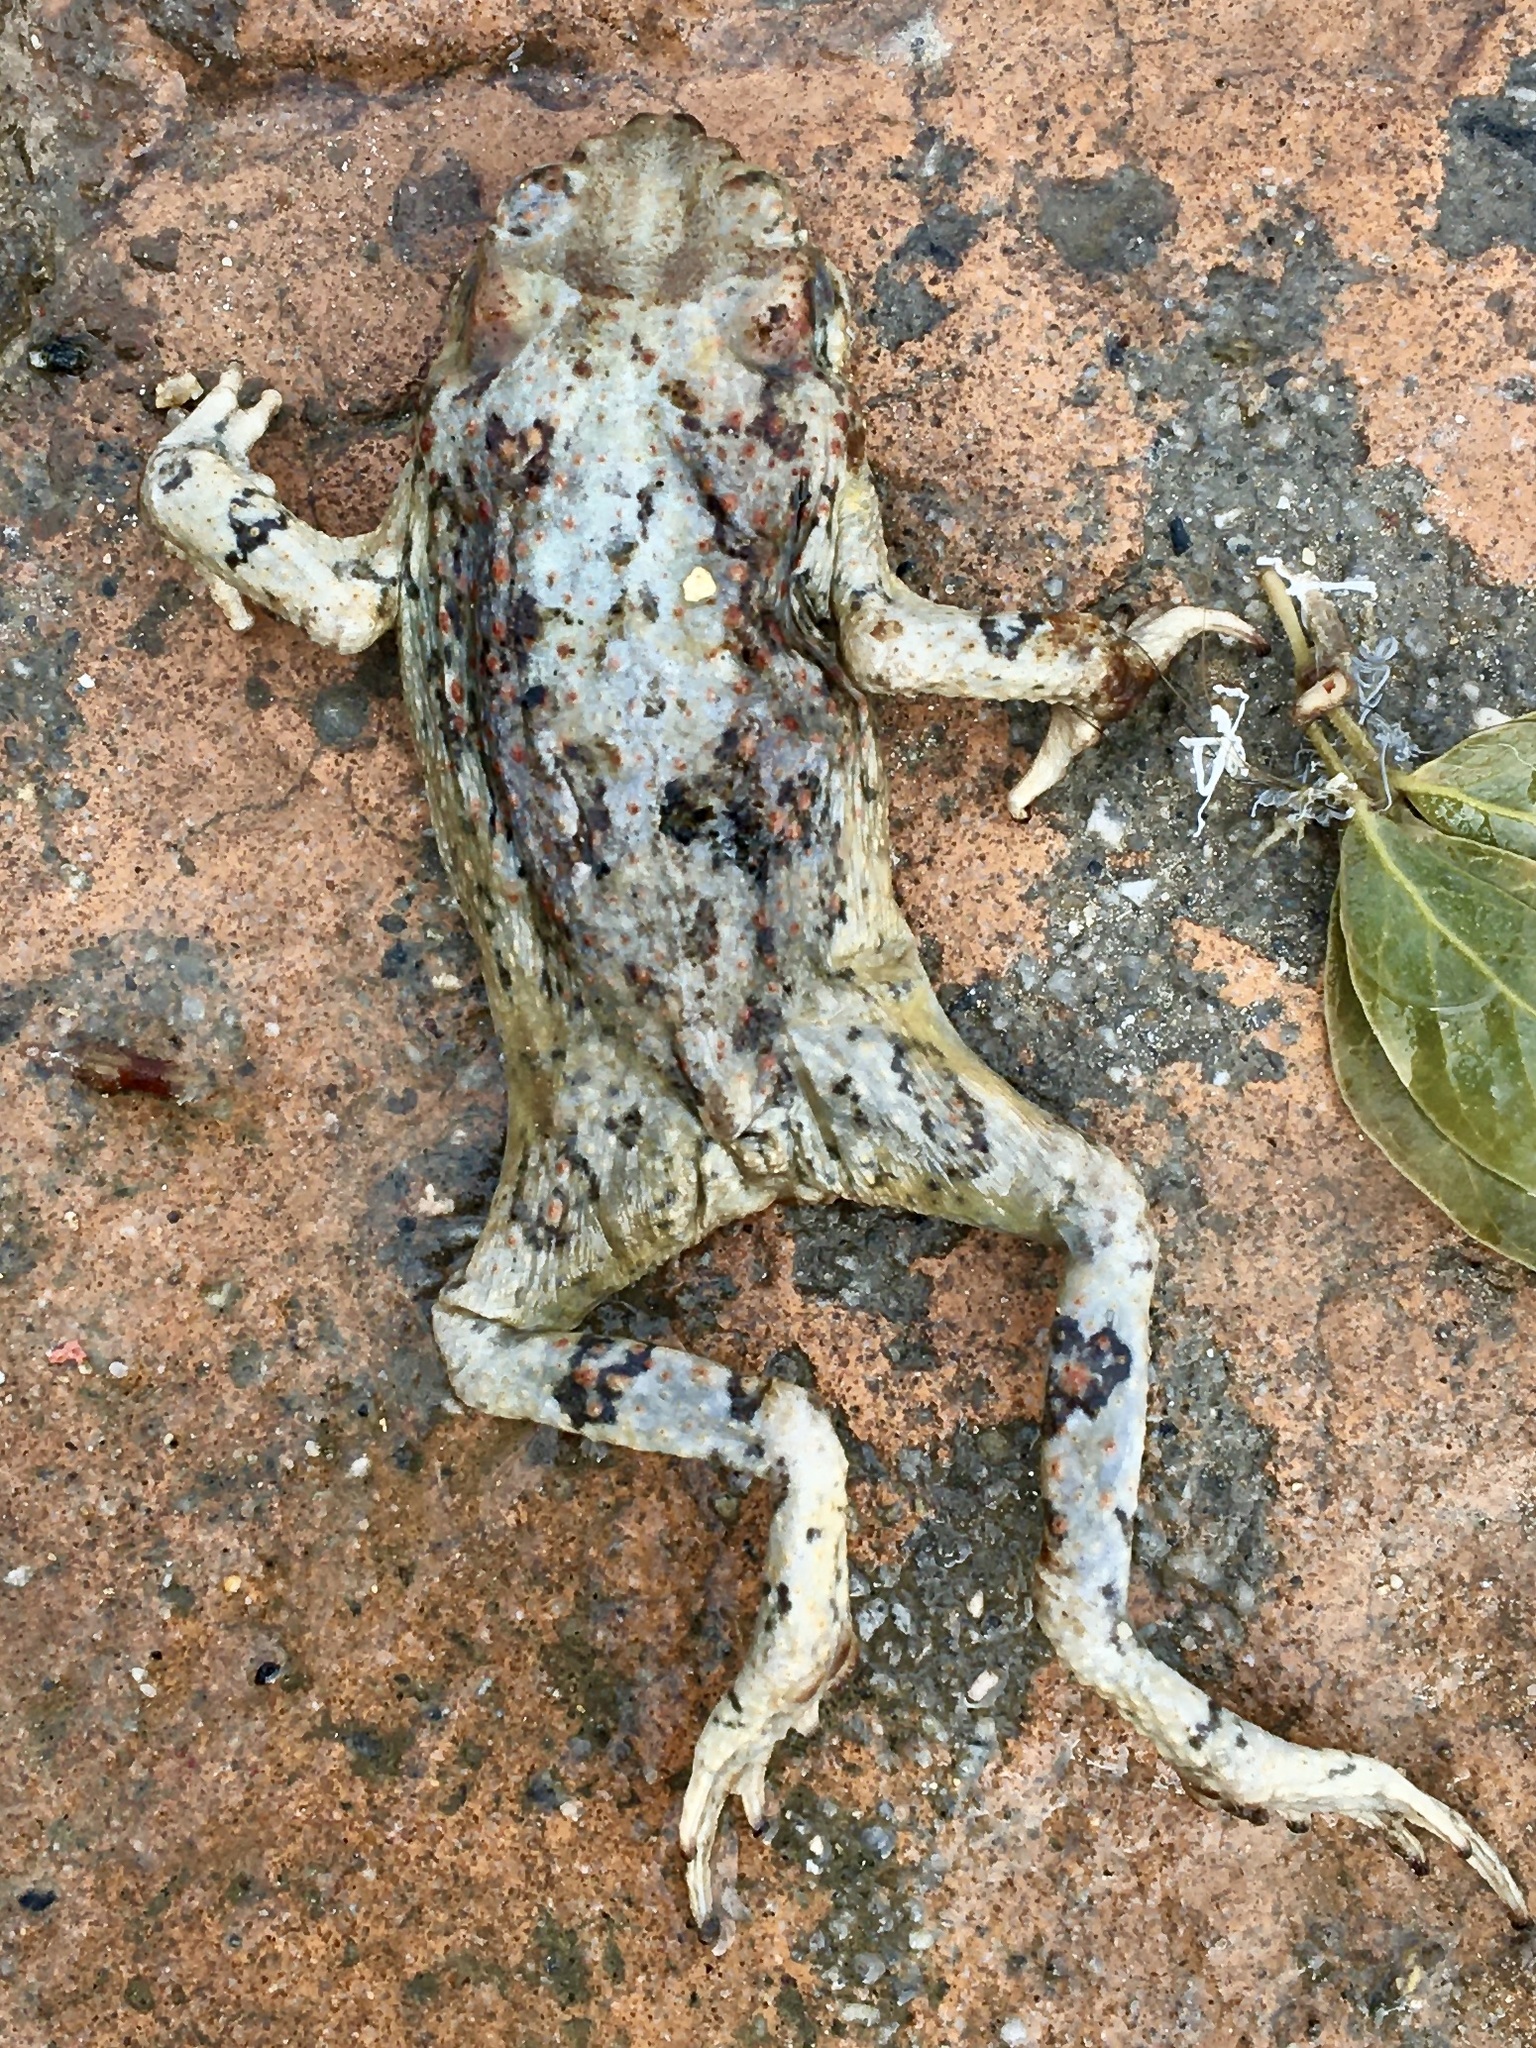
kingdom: Animalia
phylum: Chordata
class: Amphibia
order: Anura
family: Bufonidae
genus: Anaxyrus
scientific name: Anaxyrus punctatus
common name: Red-spotted toad
